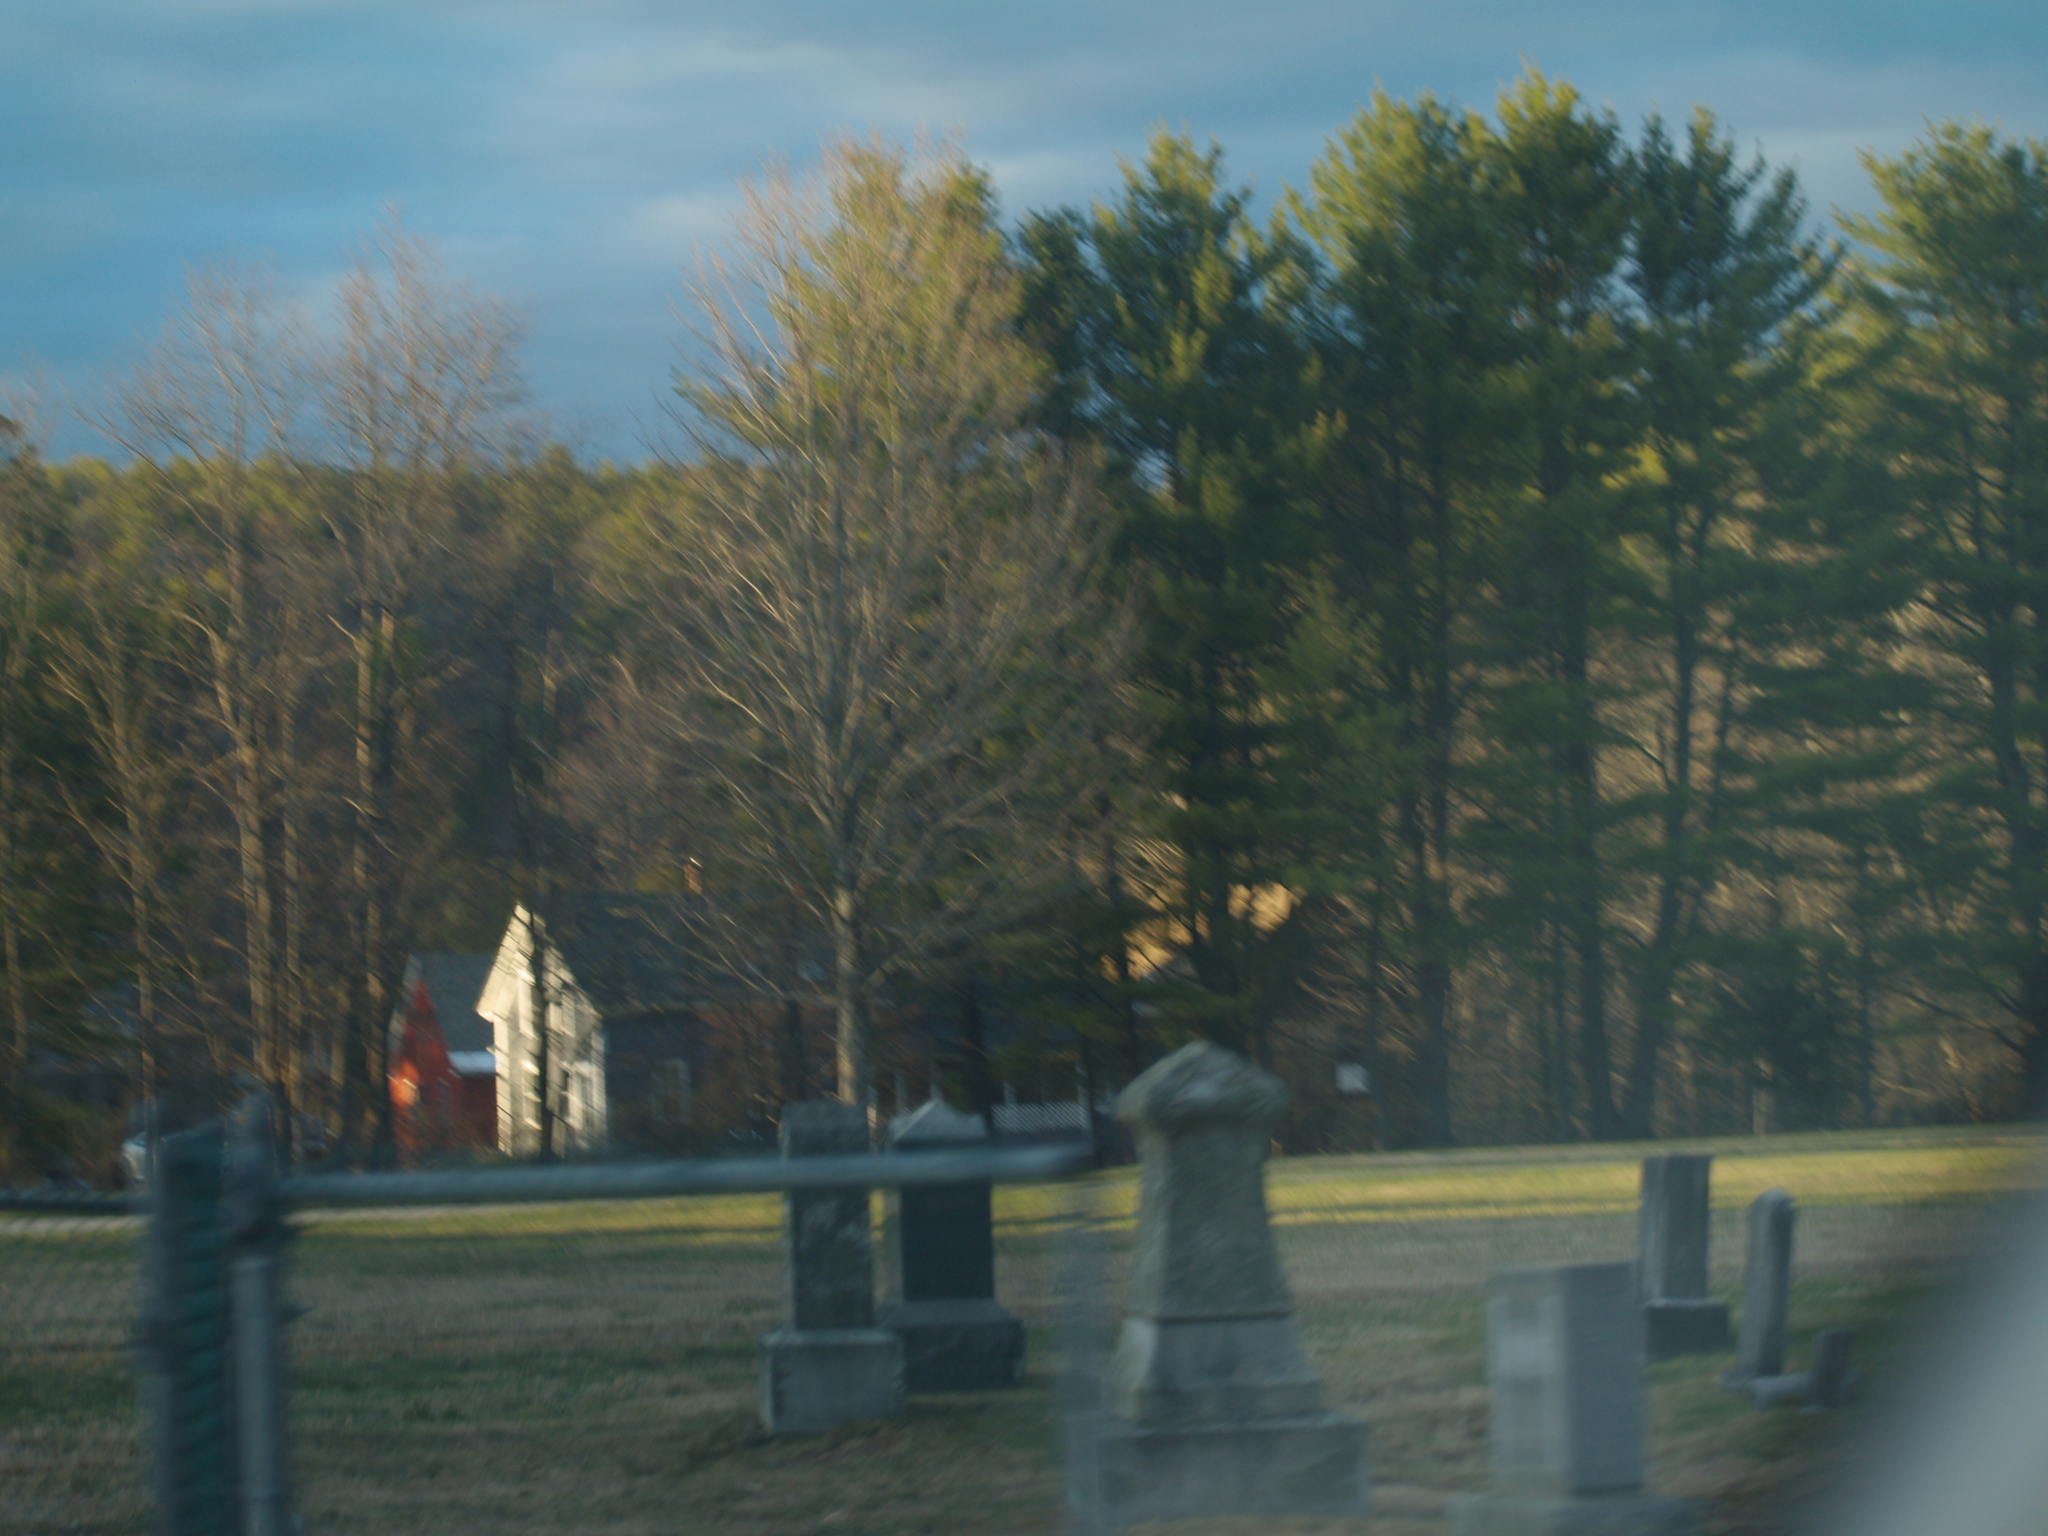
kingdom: Plantae
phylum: Tracheophyta
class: Pinopsida
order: Pinales
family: Pinaceae
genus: Pinus
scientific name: Pinus strobus
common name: Weymouth pine
